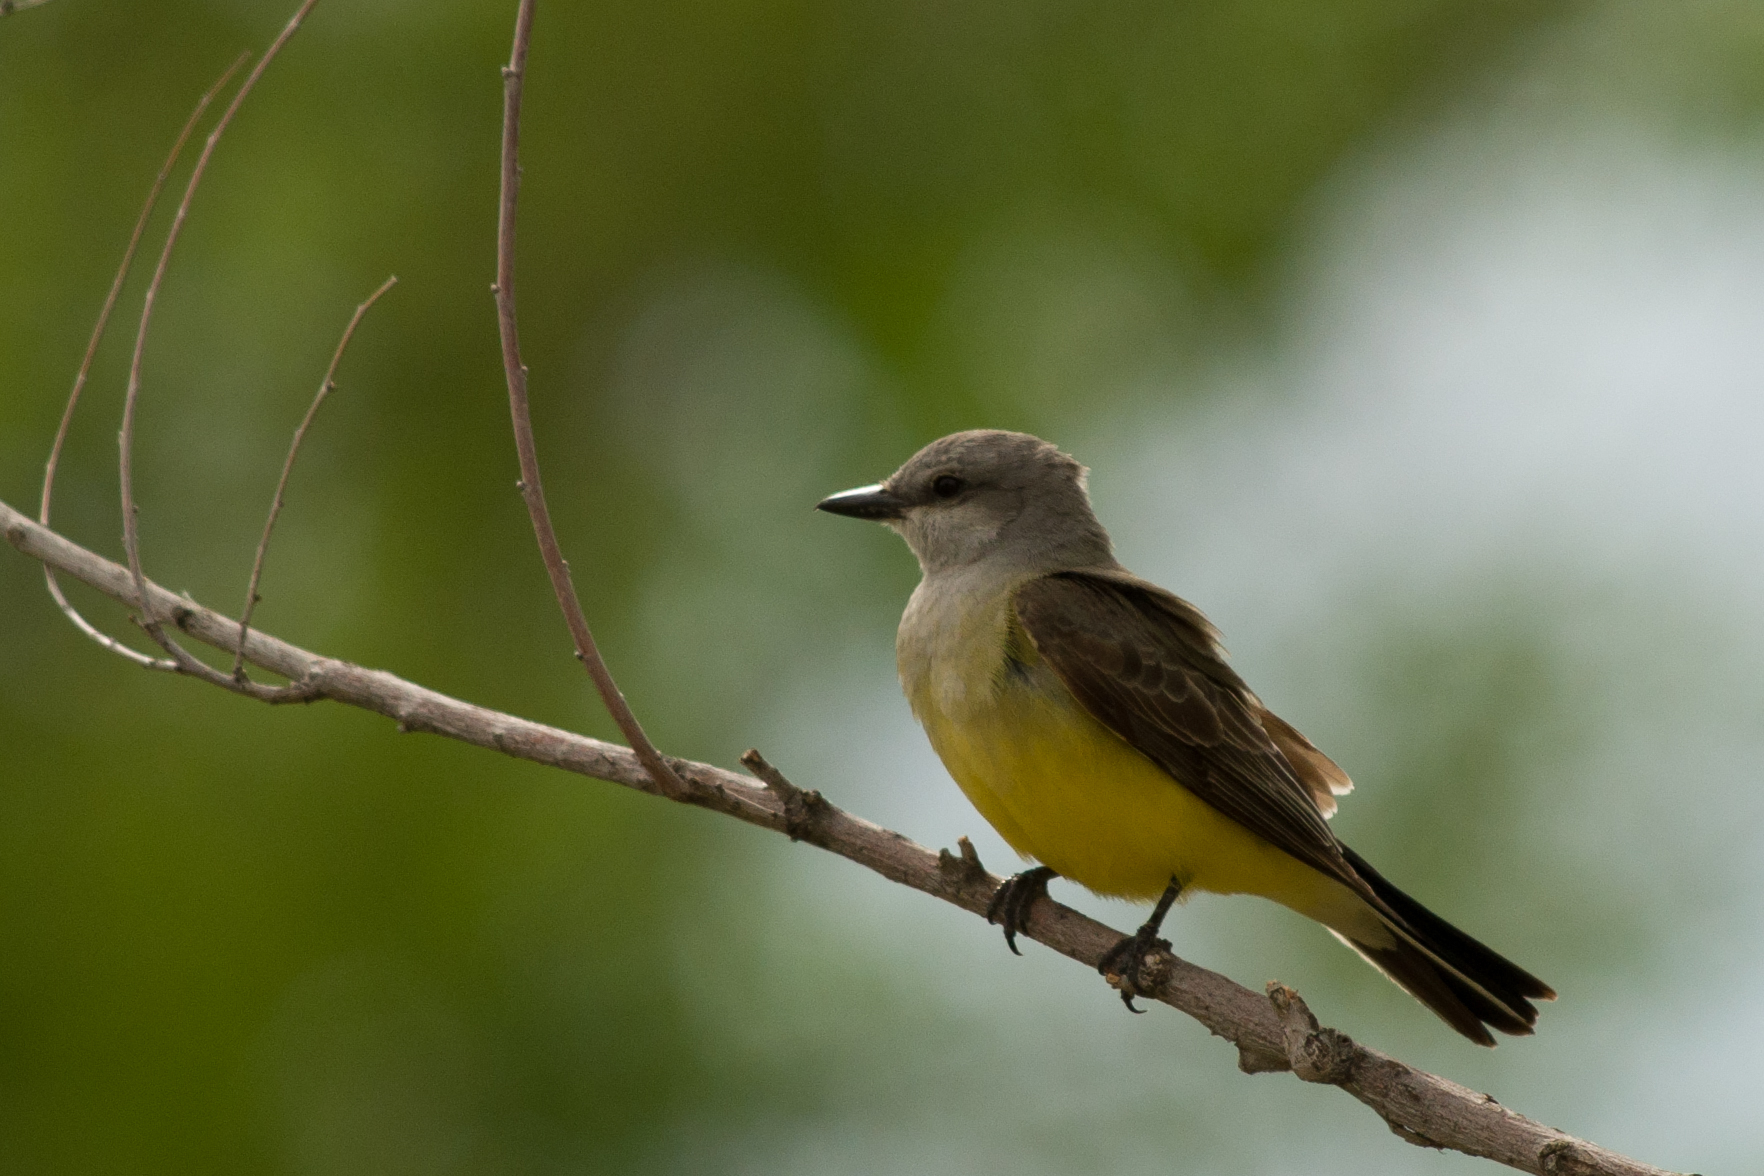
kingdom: Animalia
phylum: Chordata
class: Aves
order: Passeriformes
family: Tyrannidae
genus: Tyrannus
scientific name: Tyrannus verticalis
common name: Western kingbird
